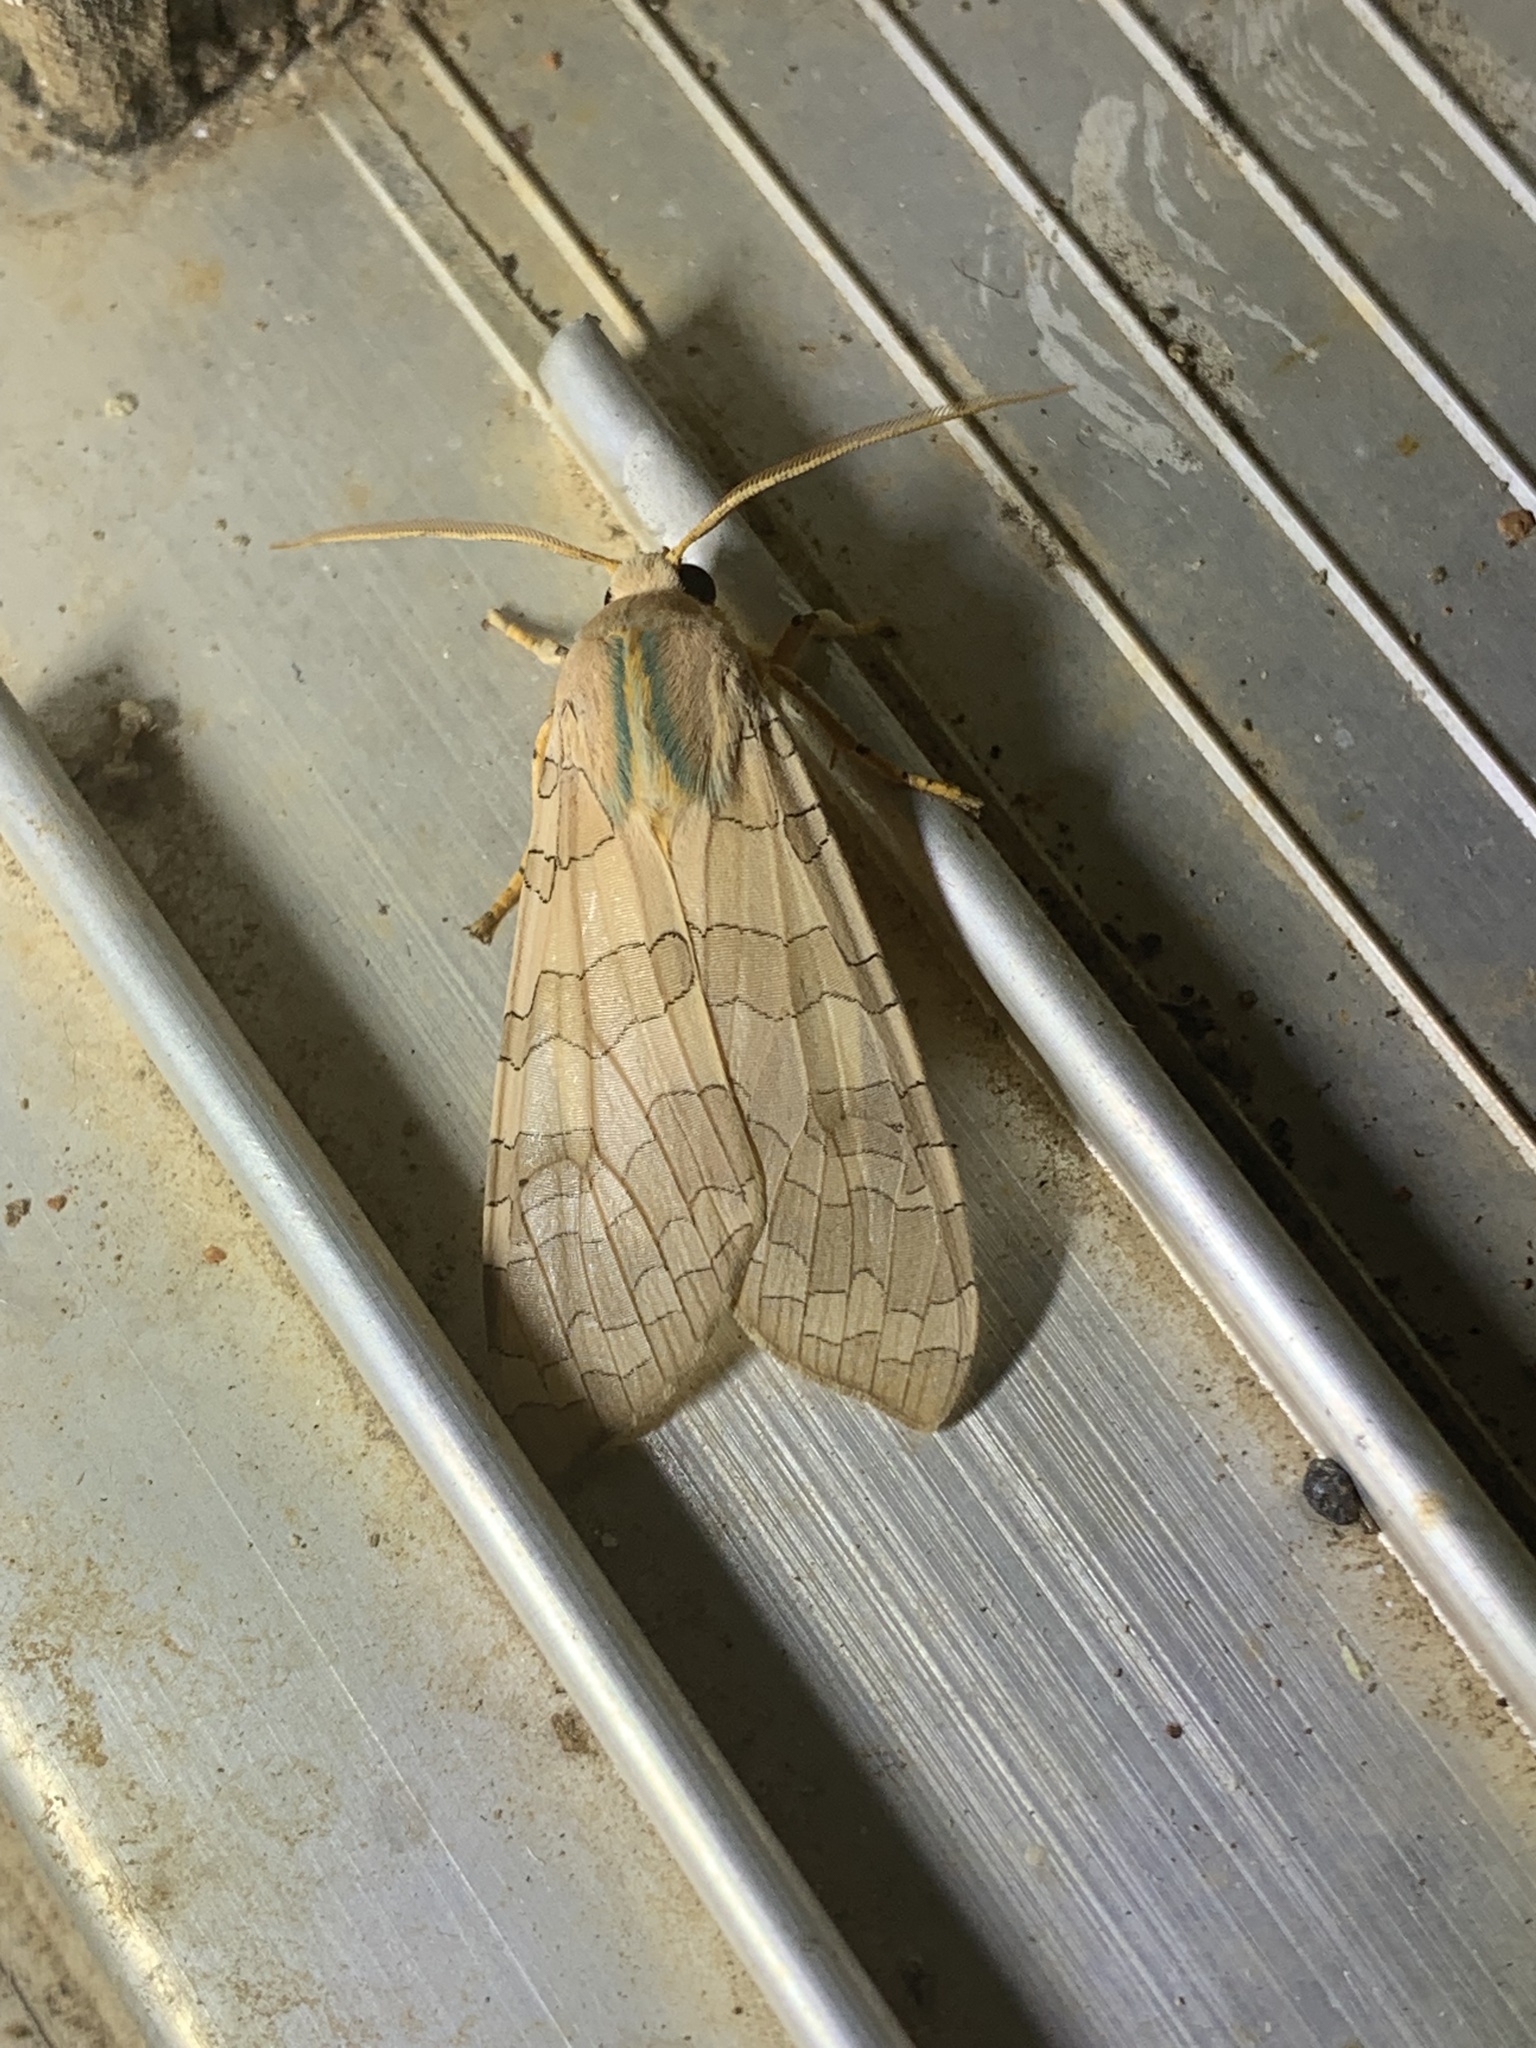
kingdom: Animalia
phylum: Arthropoda
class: Insecta
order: Lepidoptera
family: Erebidae
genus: Halysidota
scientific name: Halysidota
